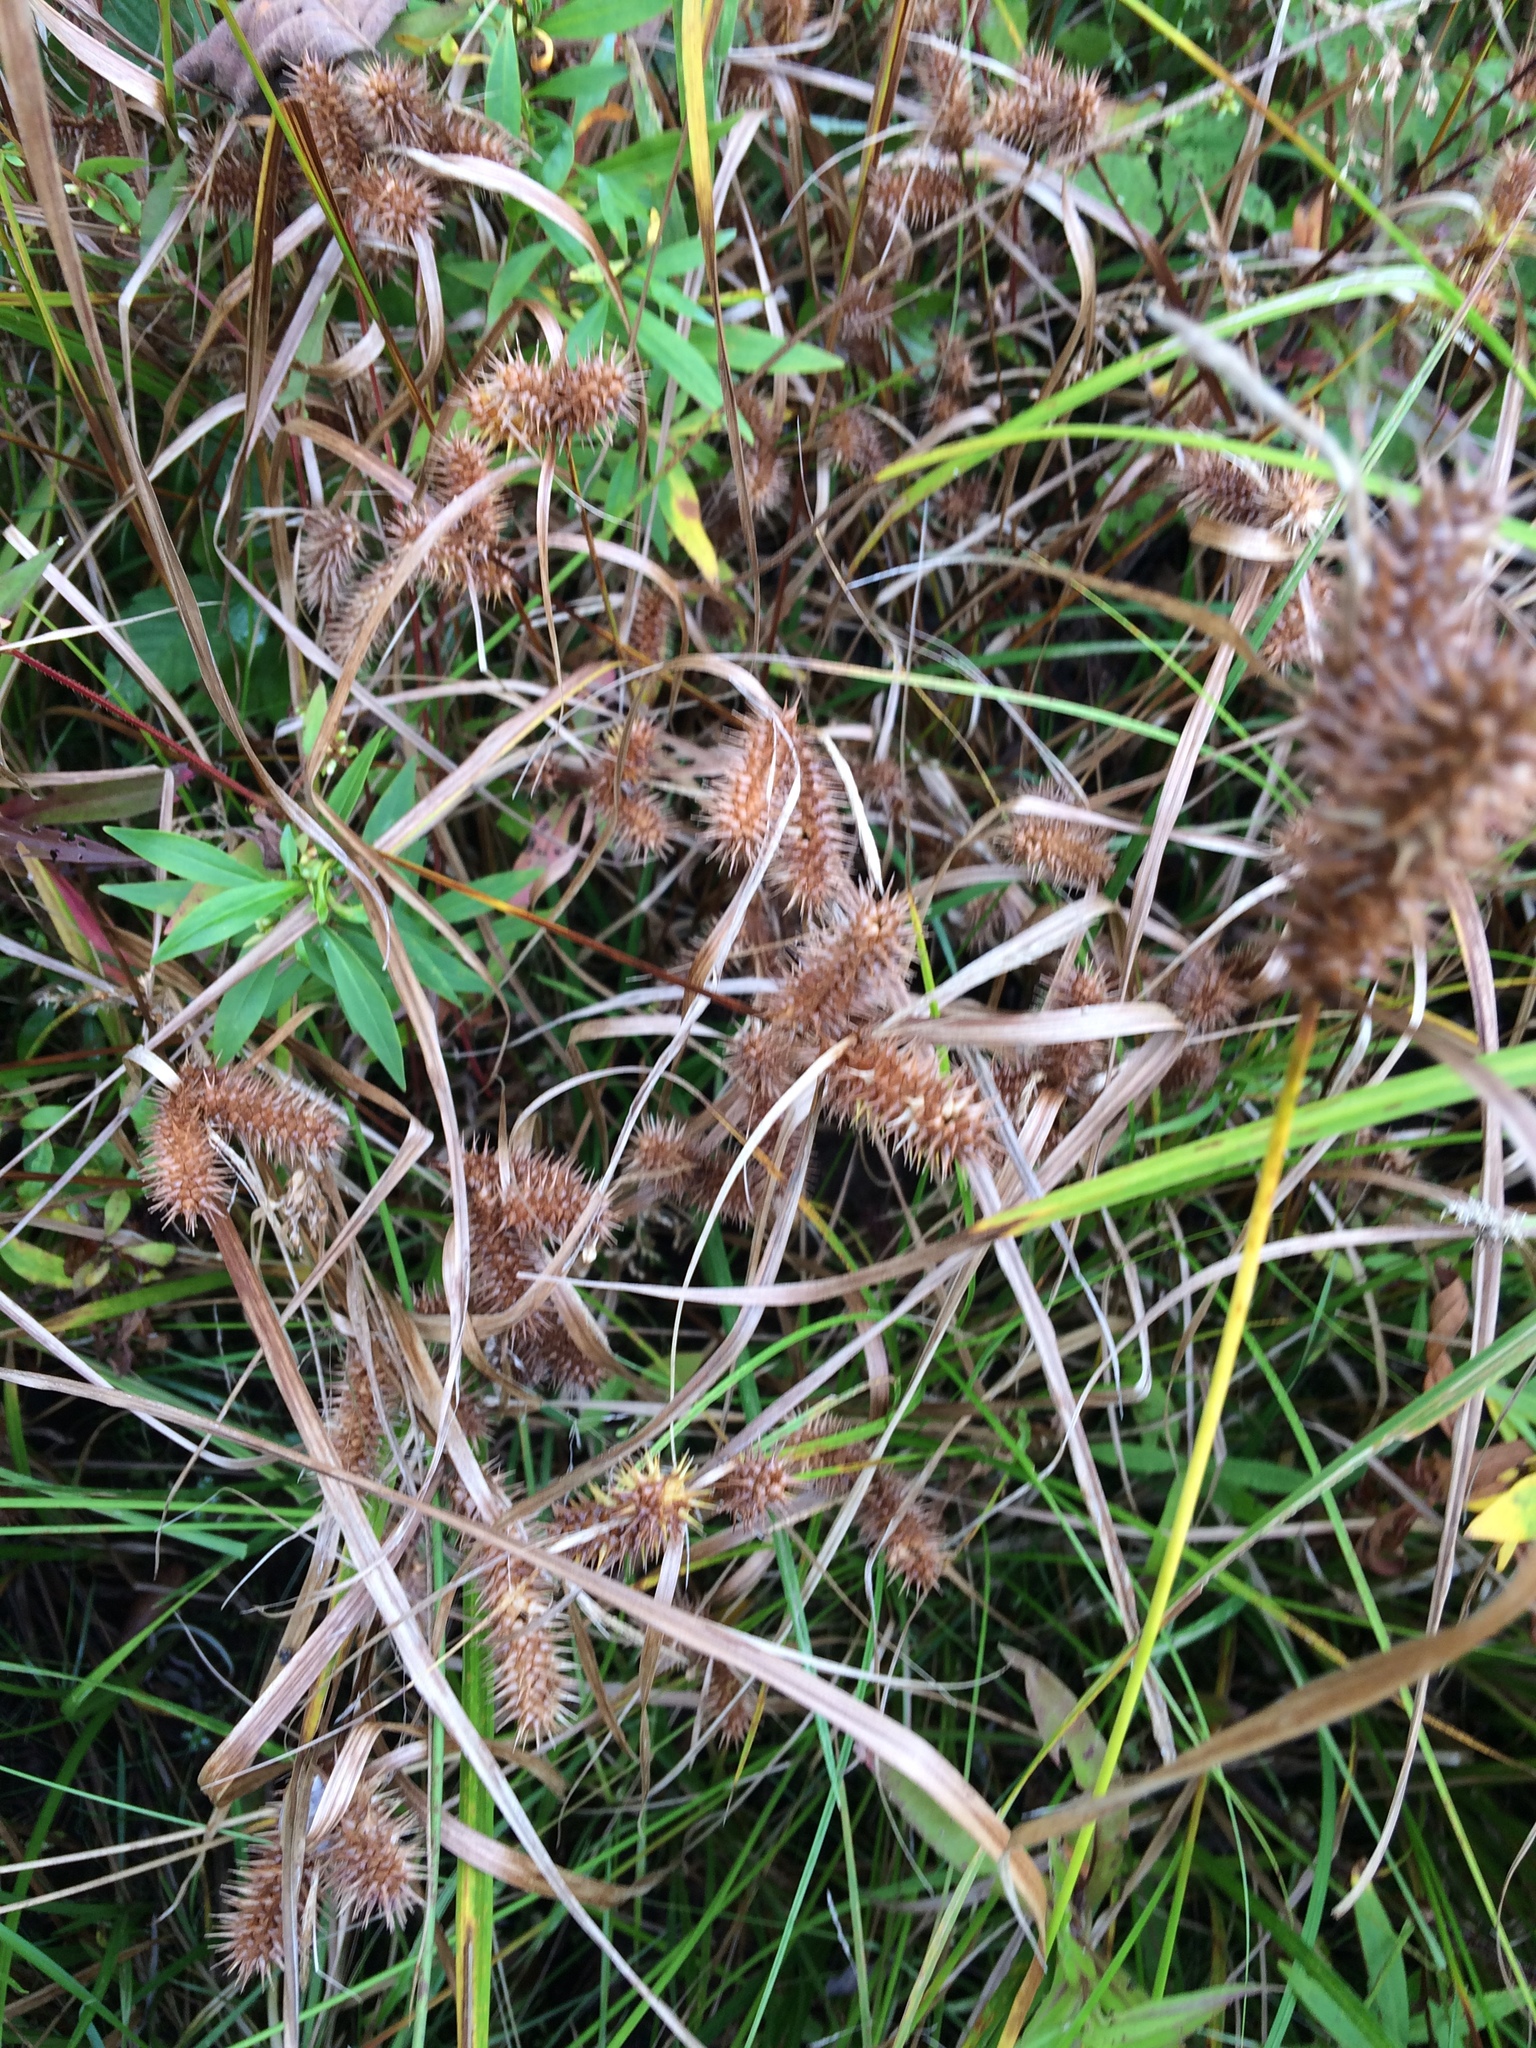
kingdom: Plantae
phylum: Tracheophyta
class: Liliopsida
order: Poales
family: Cyperaceae
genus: Carex
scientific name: Carex lurida
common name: Sallow sedge
